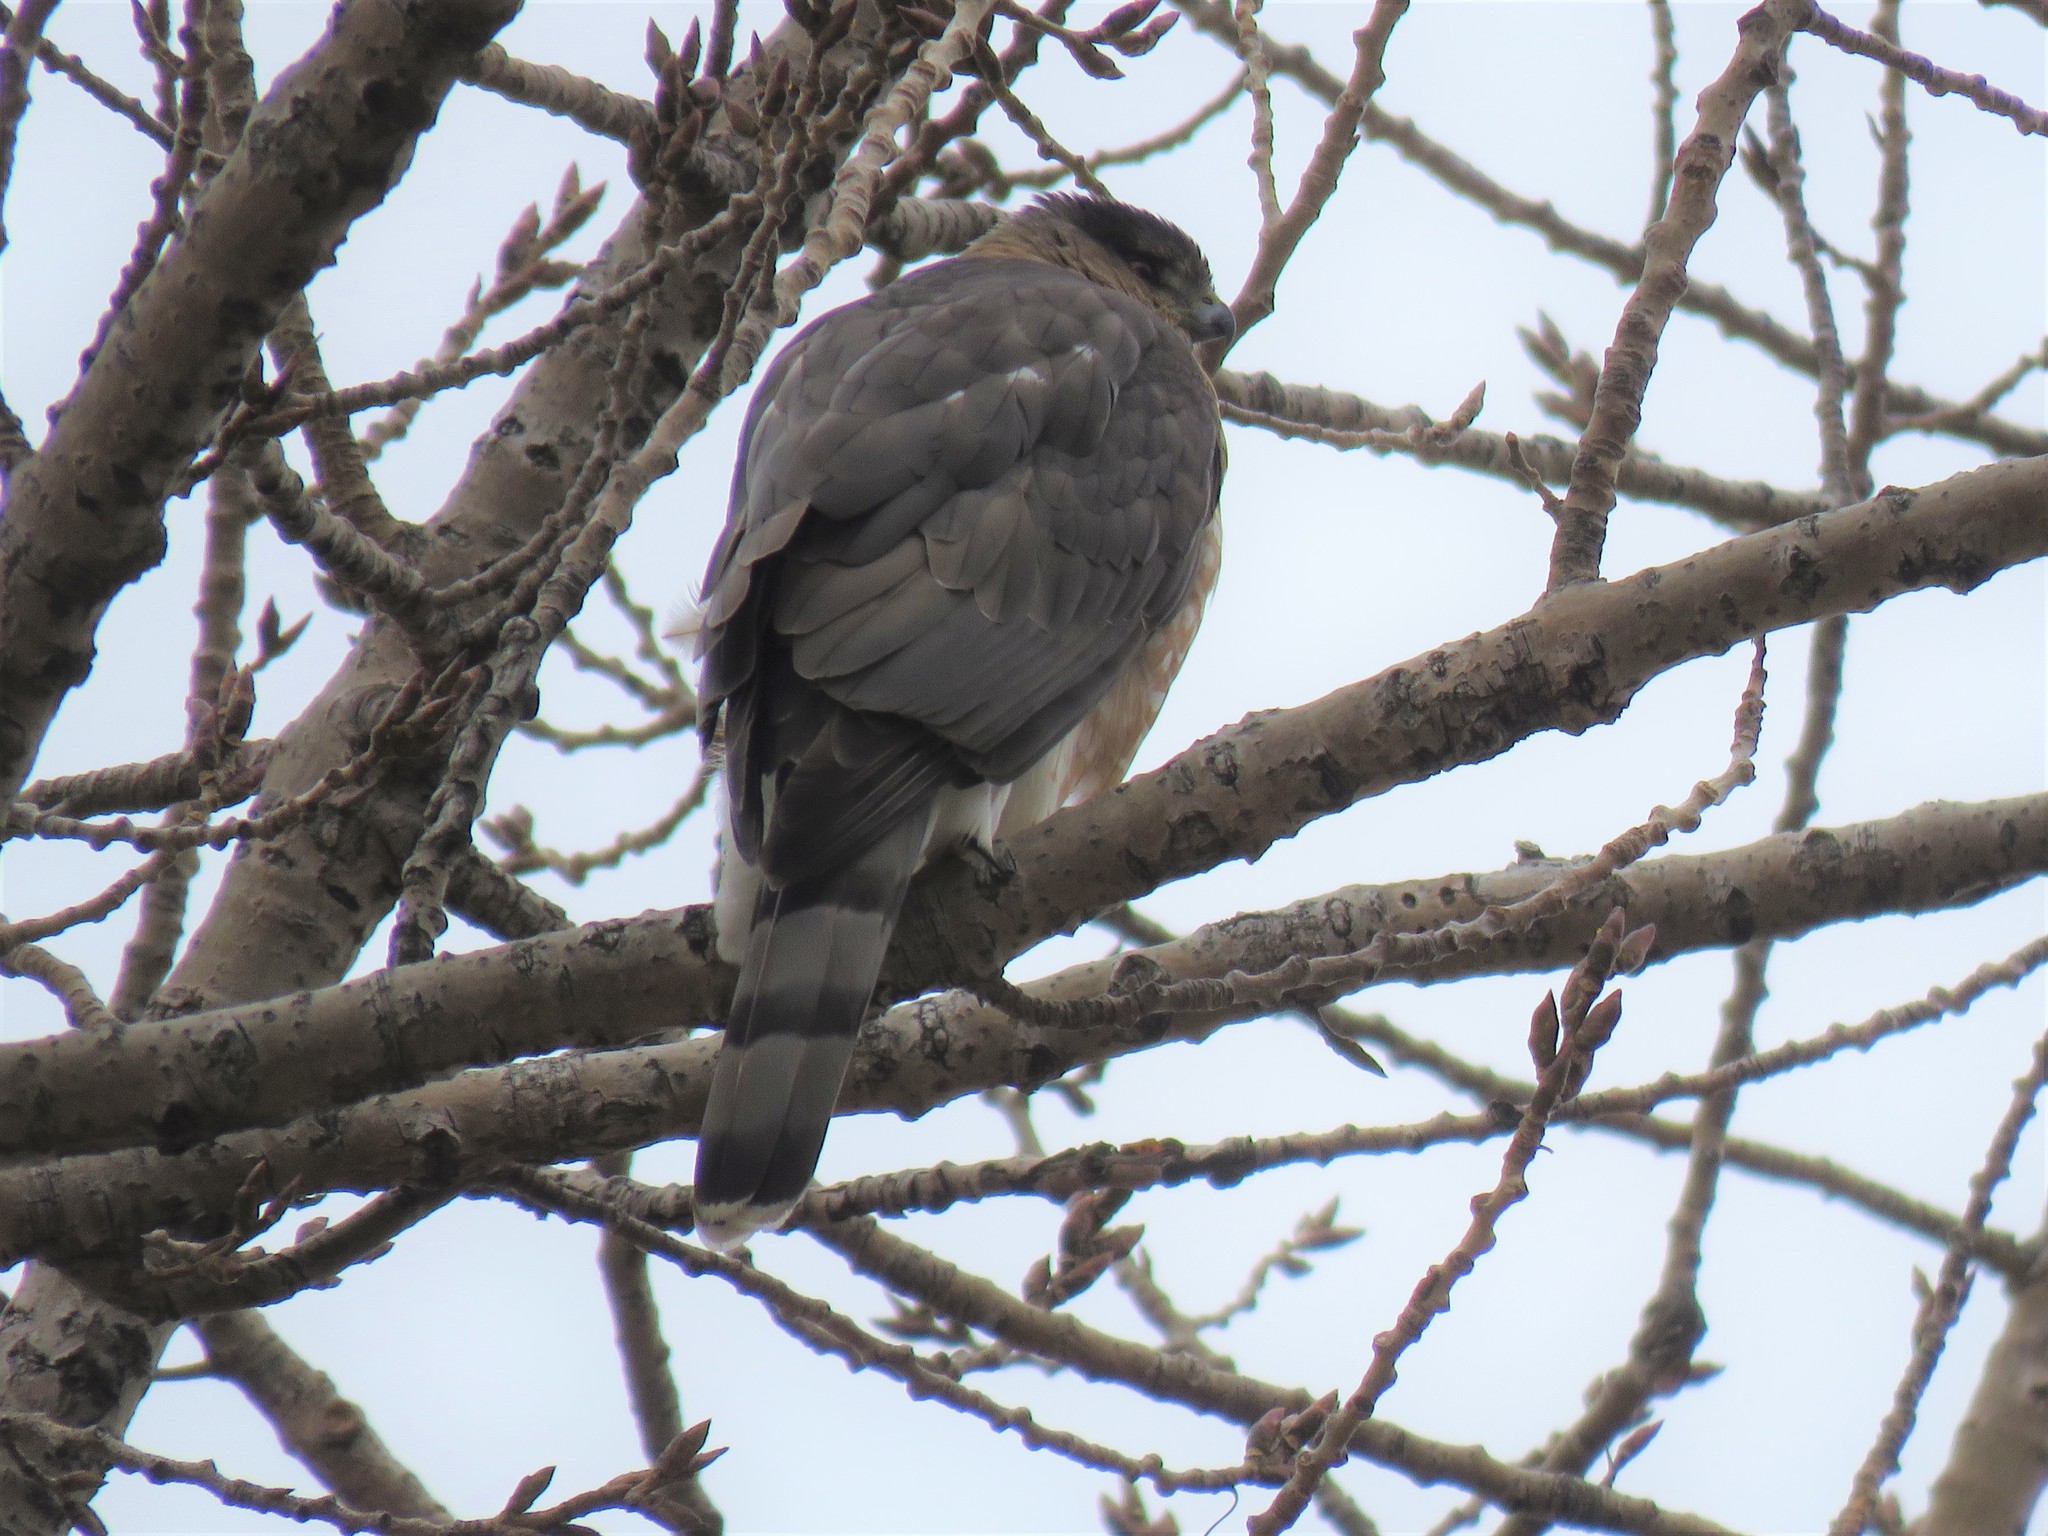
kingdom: Animalia
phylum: Chordata
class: Aves
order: Accipitriformes
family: Accipitridae
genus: Accipiter
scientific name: Accipiter cooperii
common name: Cooper's hawk
